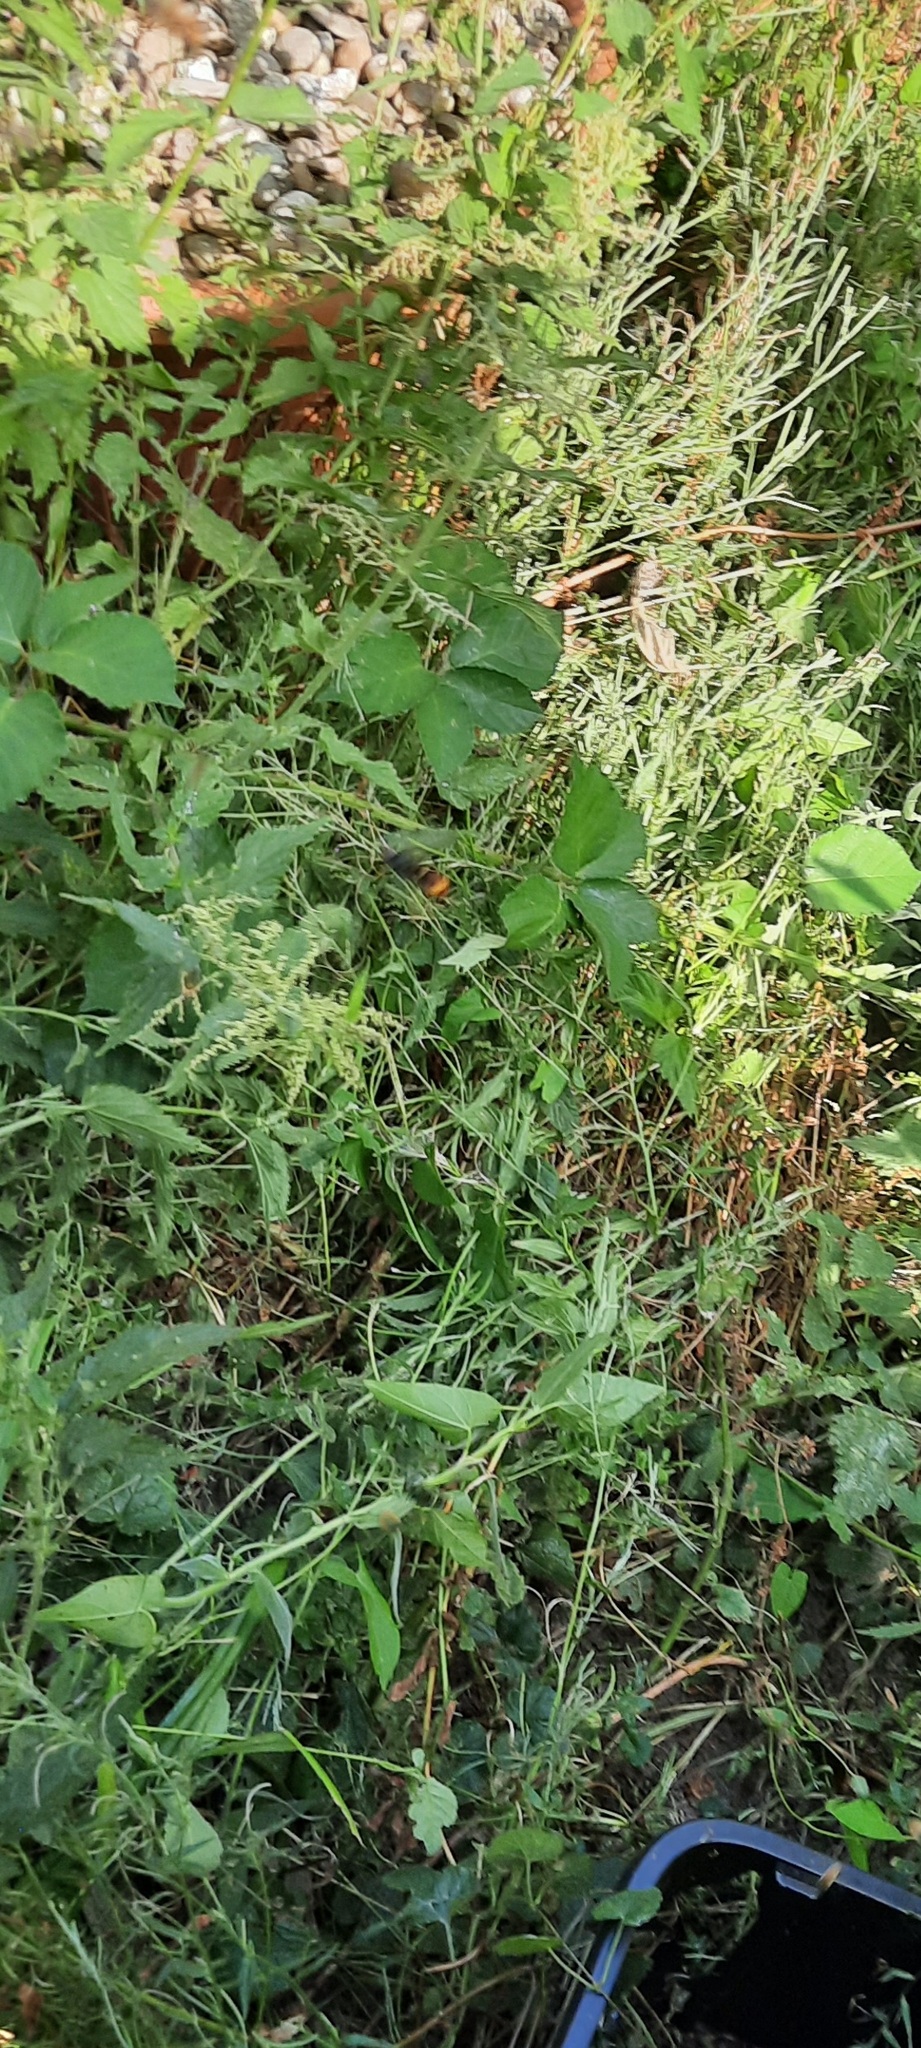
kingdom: Animalia
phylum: Arthropoda
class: Insecta
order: Hymenoptera
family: Vespidae
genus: Vespa
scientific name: Vespa velutina
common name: Asian hornet
